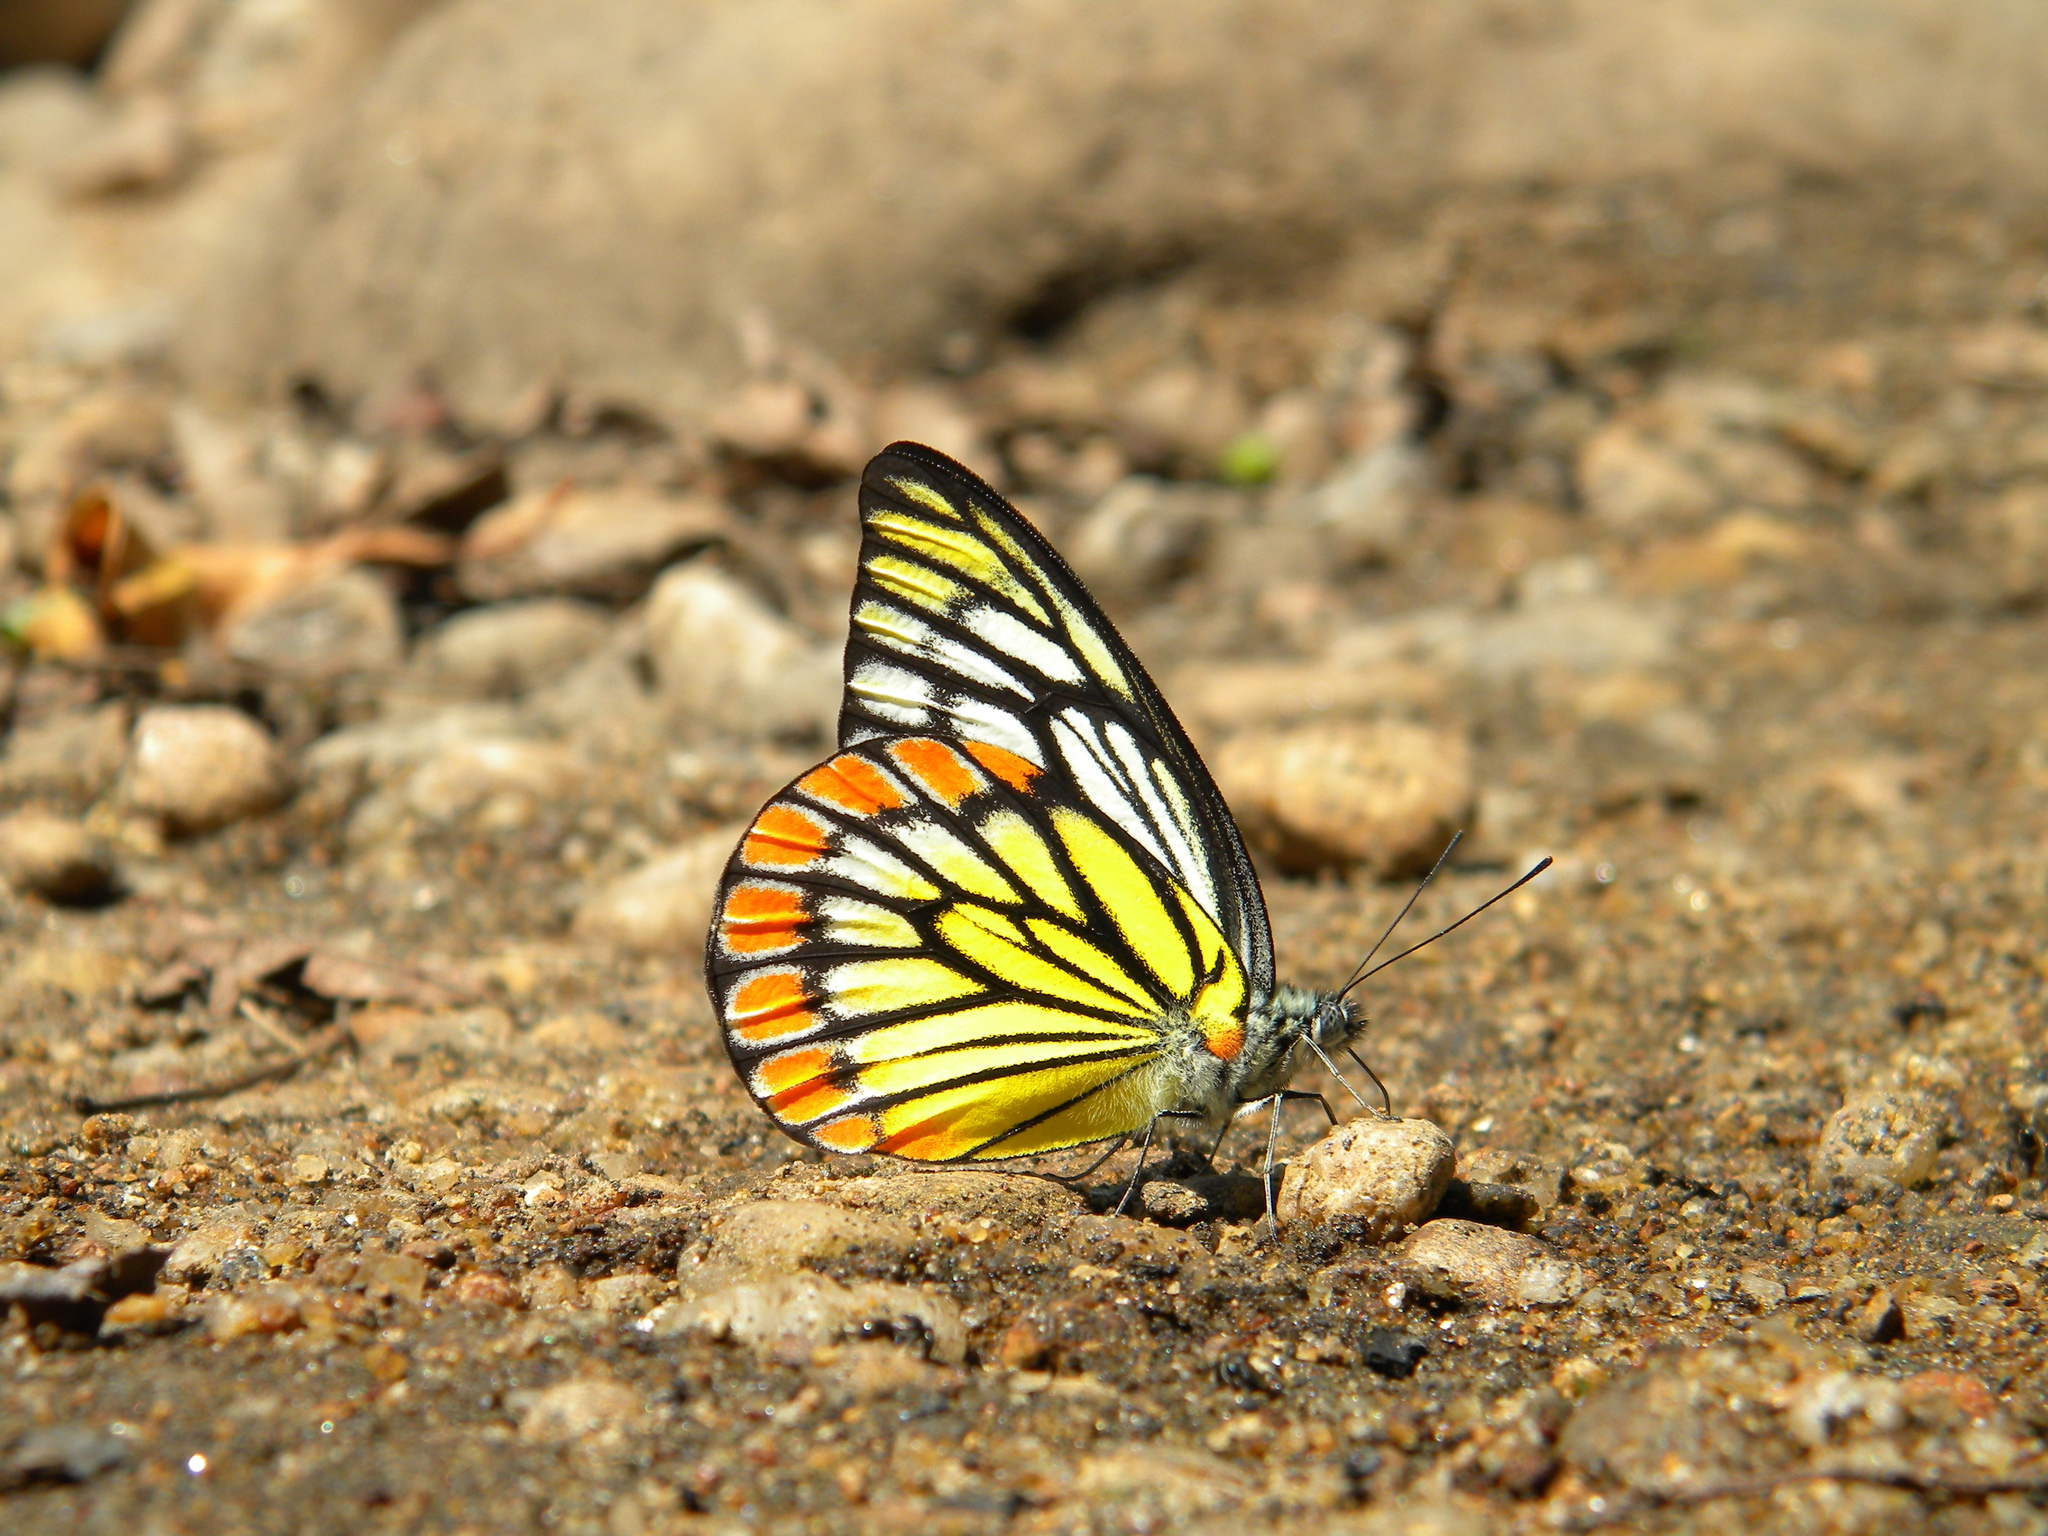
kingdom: Animalia
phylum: Arthropoda
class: Insecta
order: Lepidoptera
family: Pieridae
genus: Prioneris
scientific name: Prioneris sita
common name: Painted sawtooth
